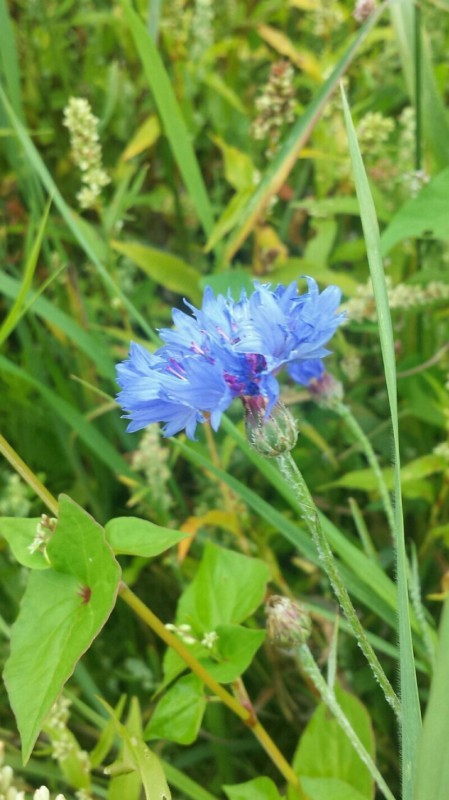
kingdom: Plantae
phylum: Tracheophyta
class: Magnoliopsida
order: Asterales
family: Asteraceae
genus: Centaurea
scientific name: Centaurea cyanus
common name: Cornflower
